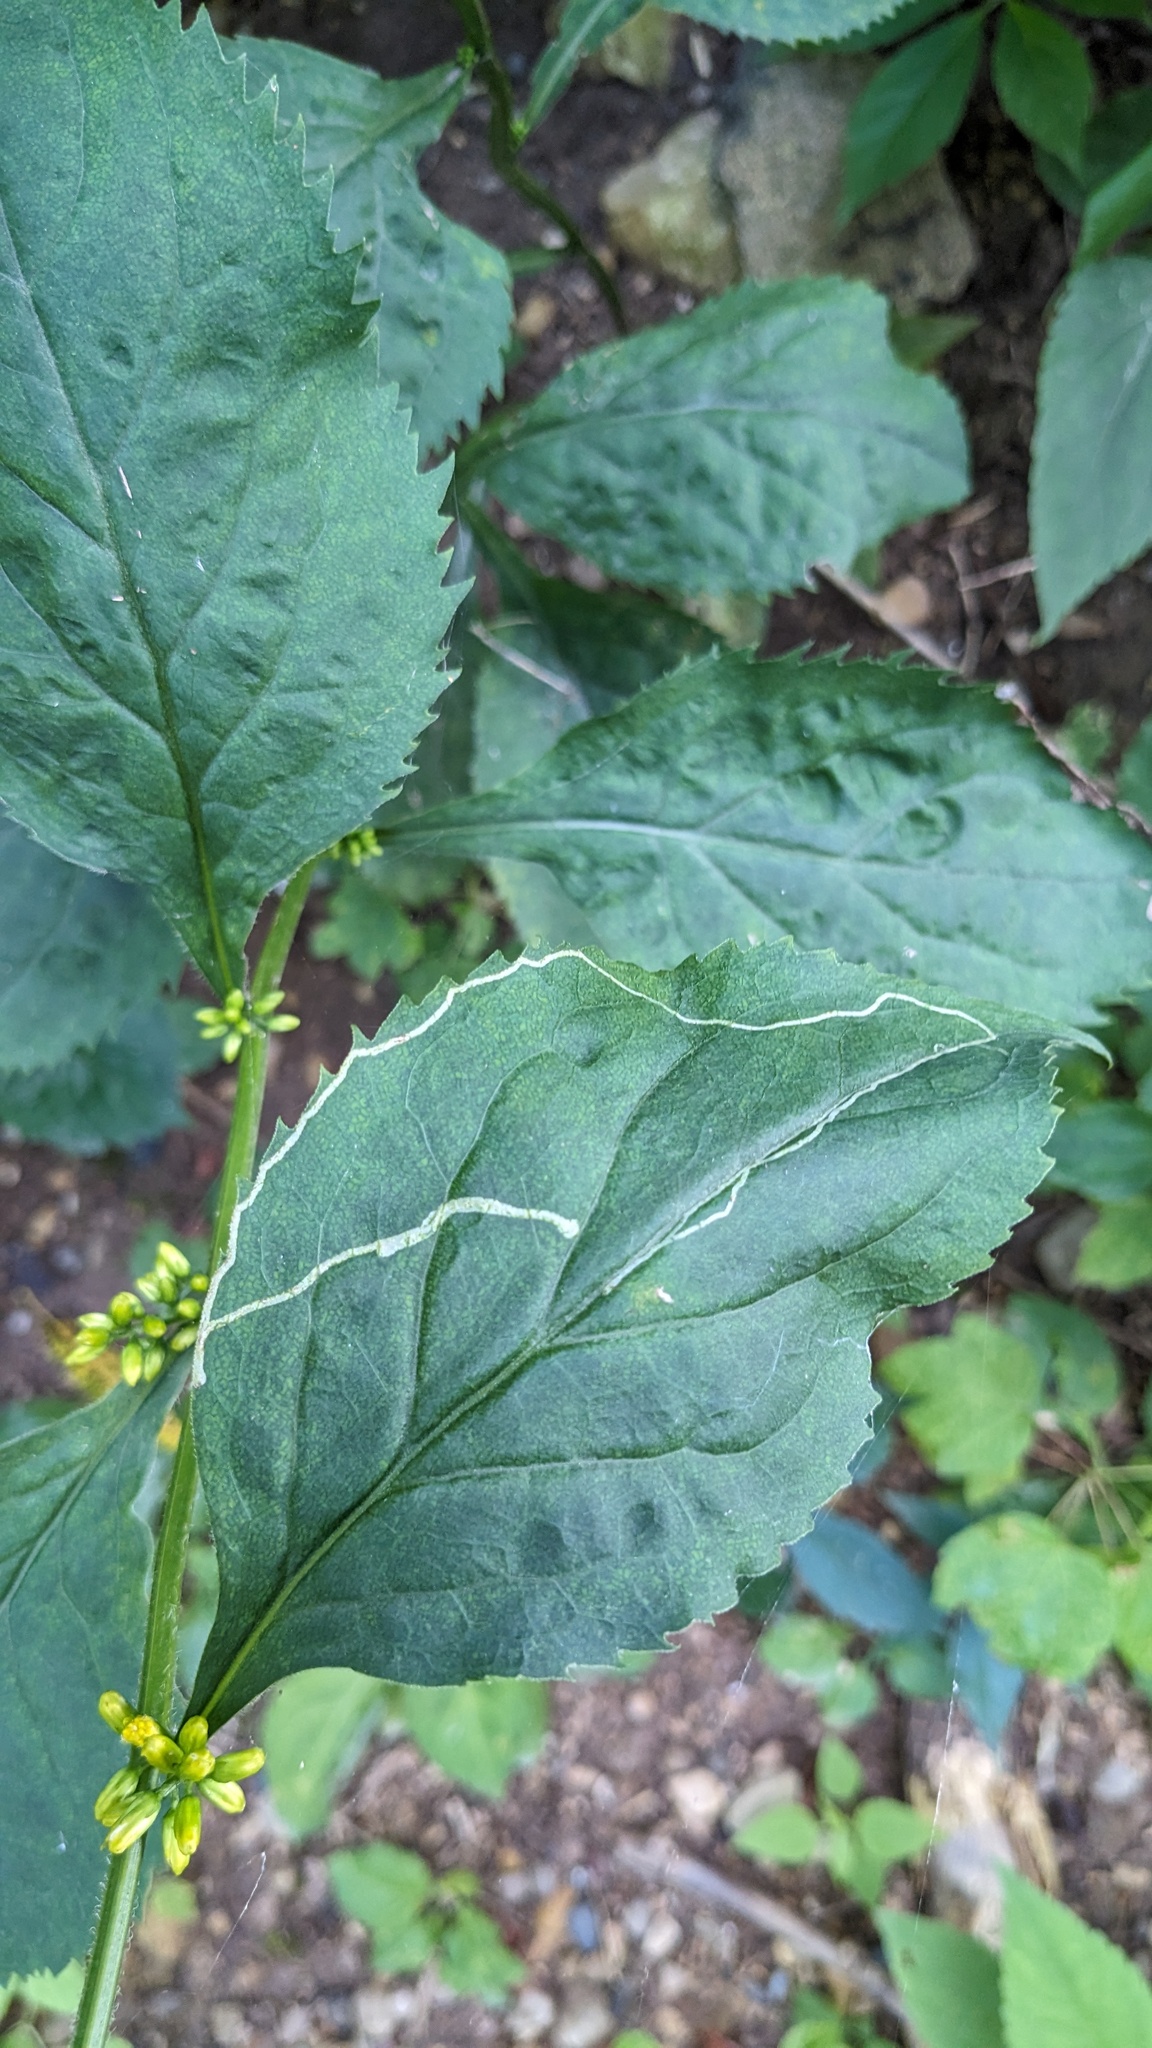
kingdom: Animalia
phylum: Arthropoda
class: Insecta
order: Diptera
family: Agromyzidae
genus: Ophiomyia
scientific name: Ophiomyia maura
